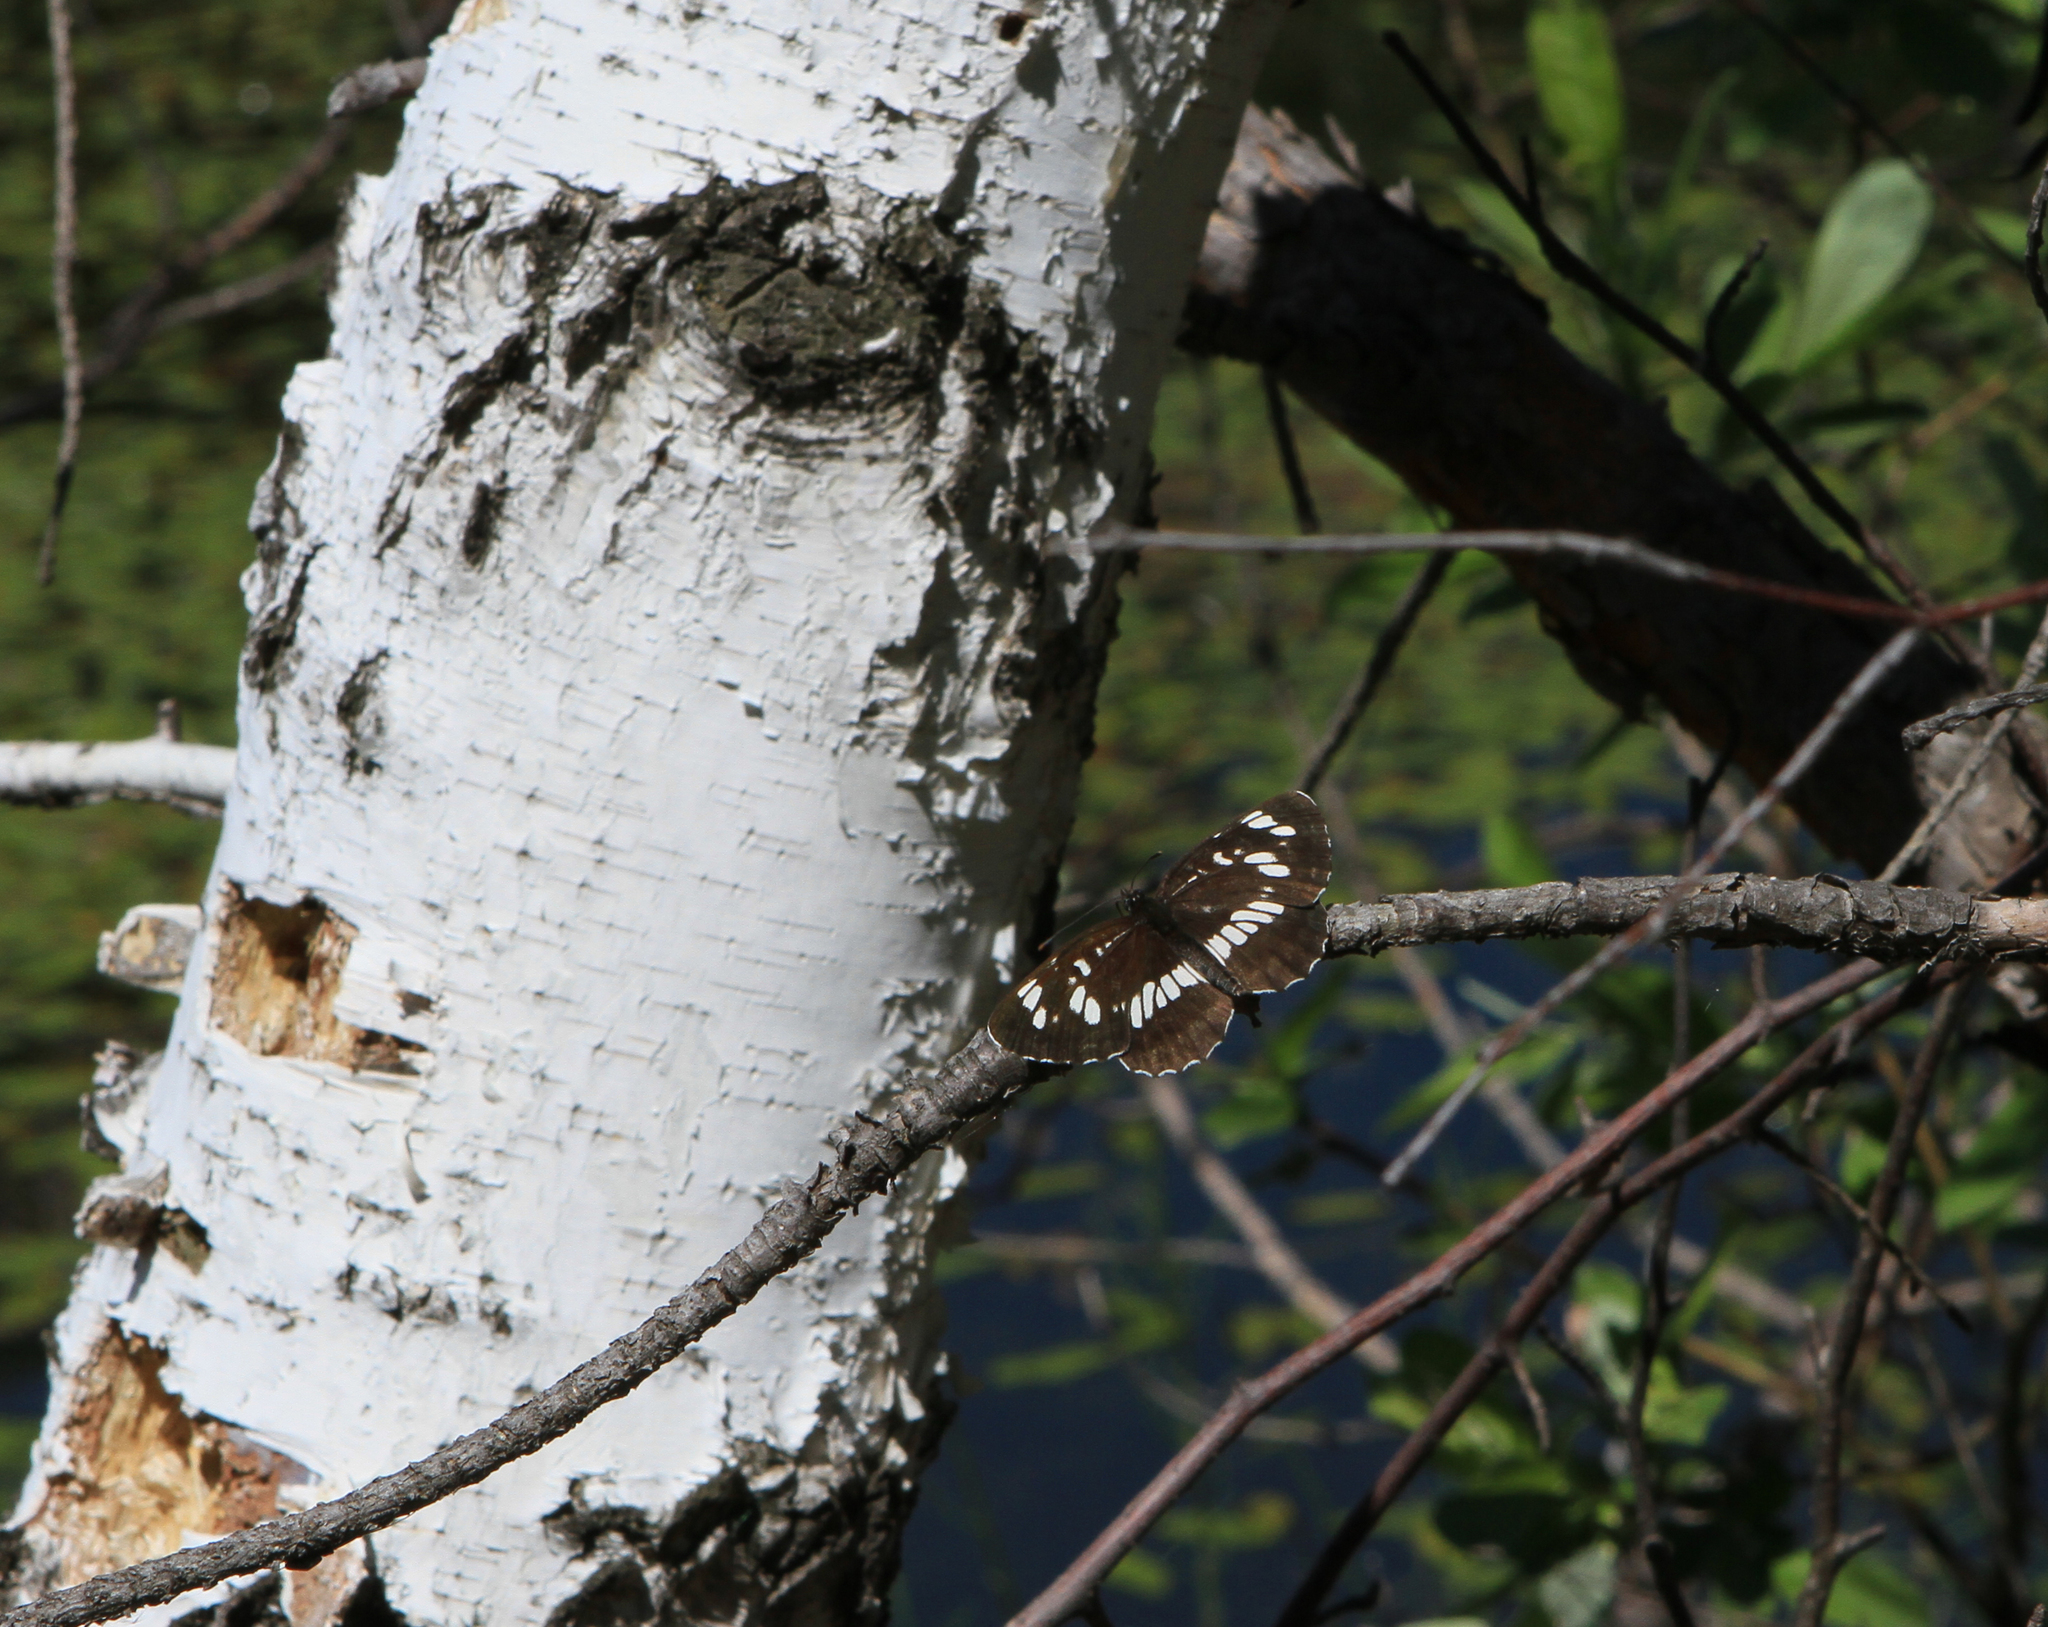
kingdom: Animalia
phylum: Arthropoda
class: Insecta
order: Lepidoptera
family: Nymphalidae
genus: Neptis
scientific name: Neptis rivularis
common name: Hungarian glider
